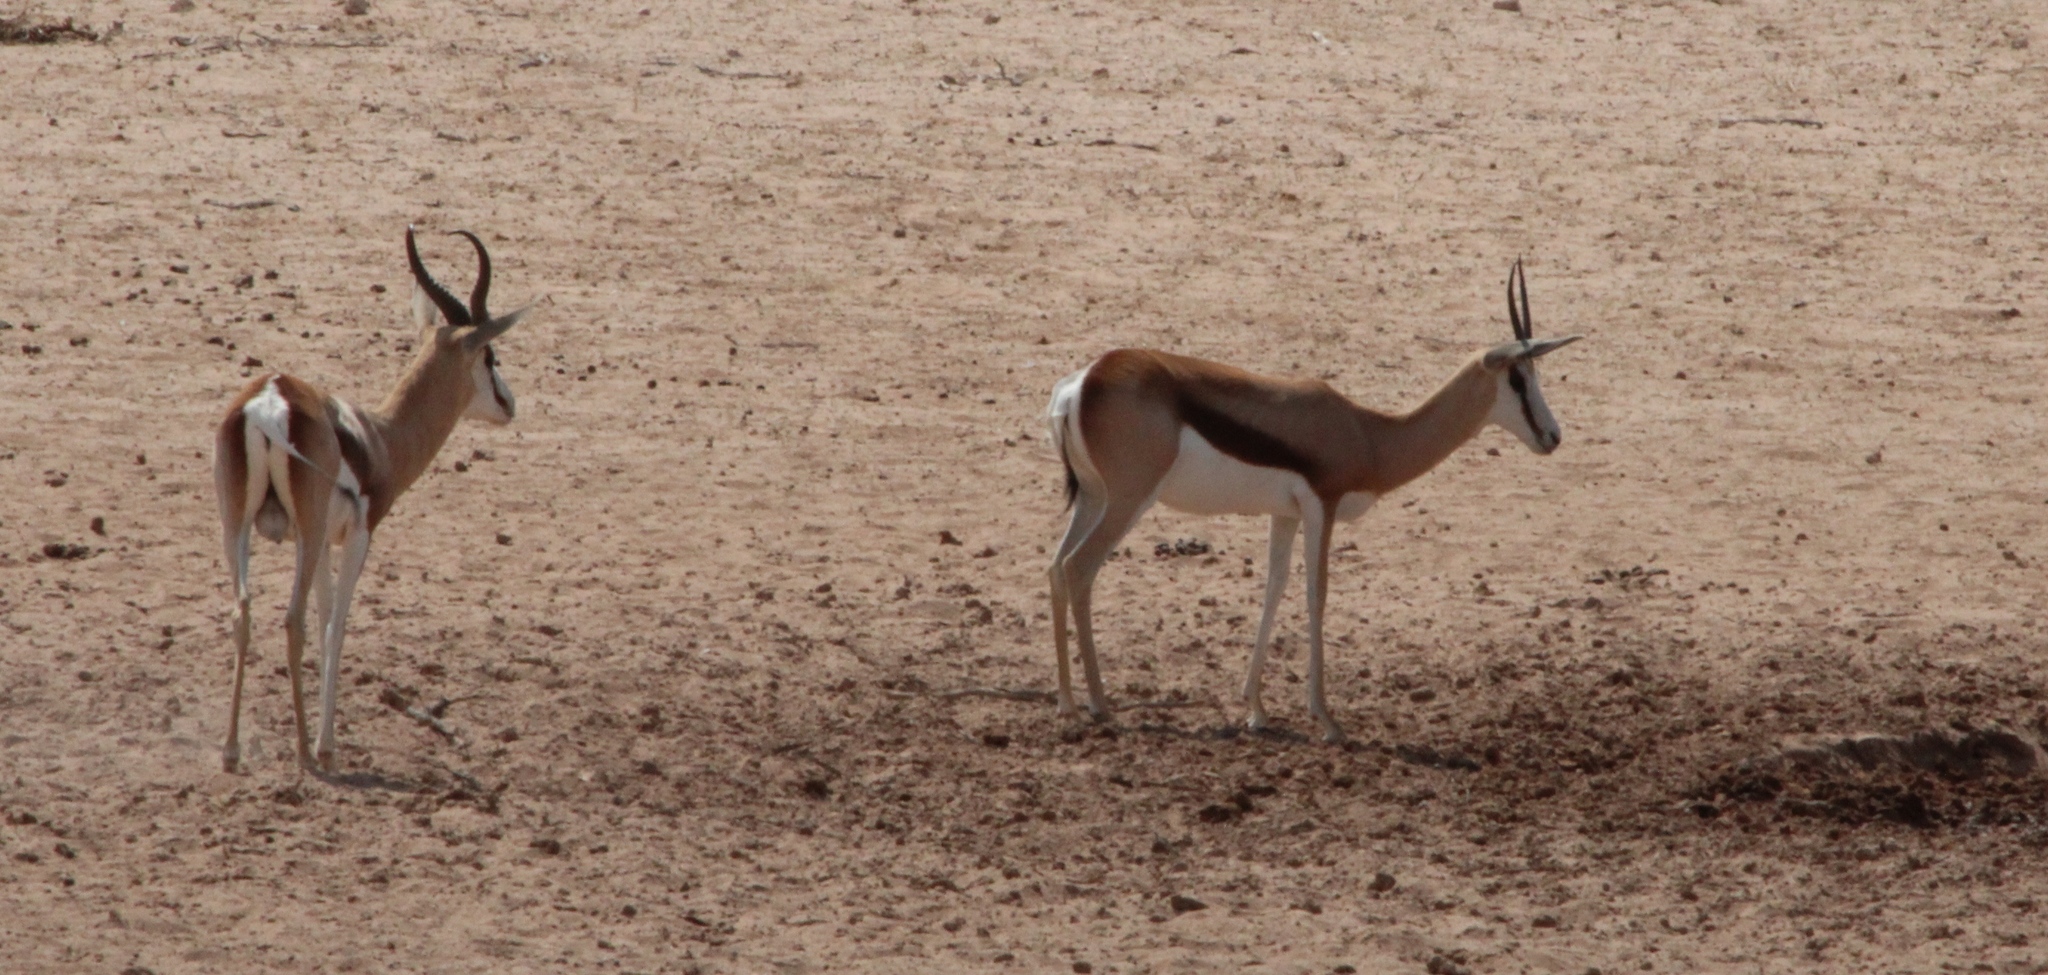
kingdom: Animalia
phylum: Chordata
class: Mammalia
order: Artiodactyla
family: Bovidae
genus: Antidorcas
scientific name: Antidorcas marsupialis
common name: Springbok
